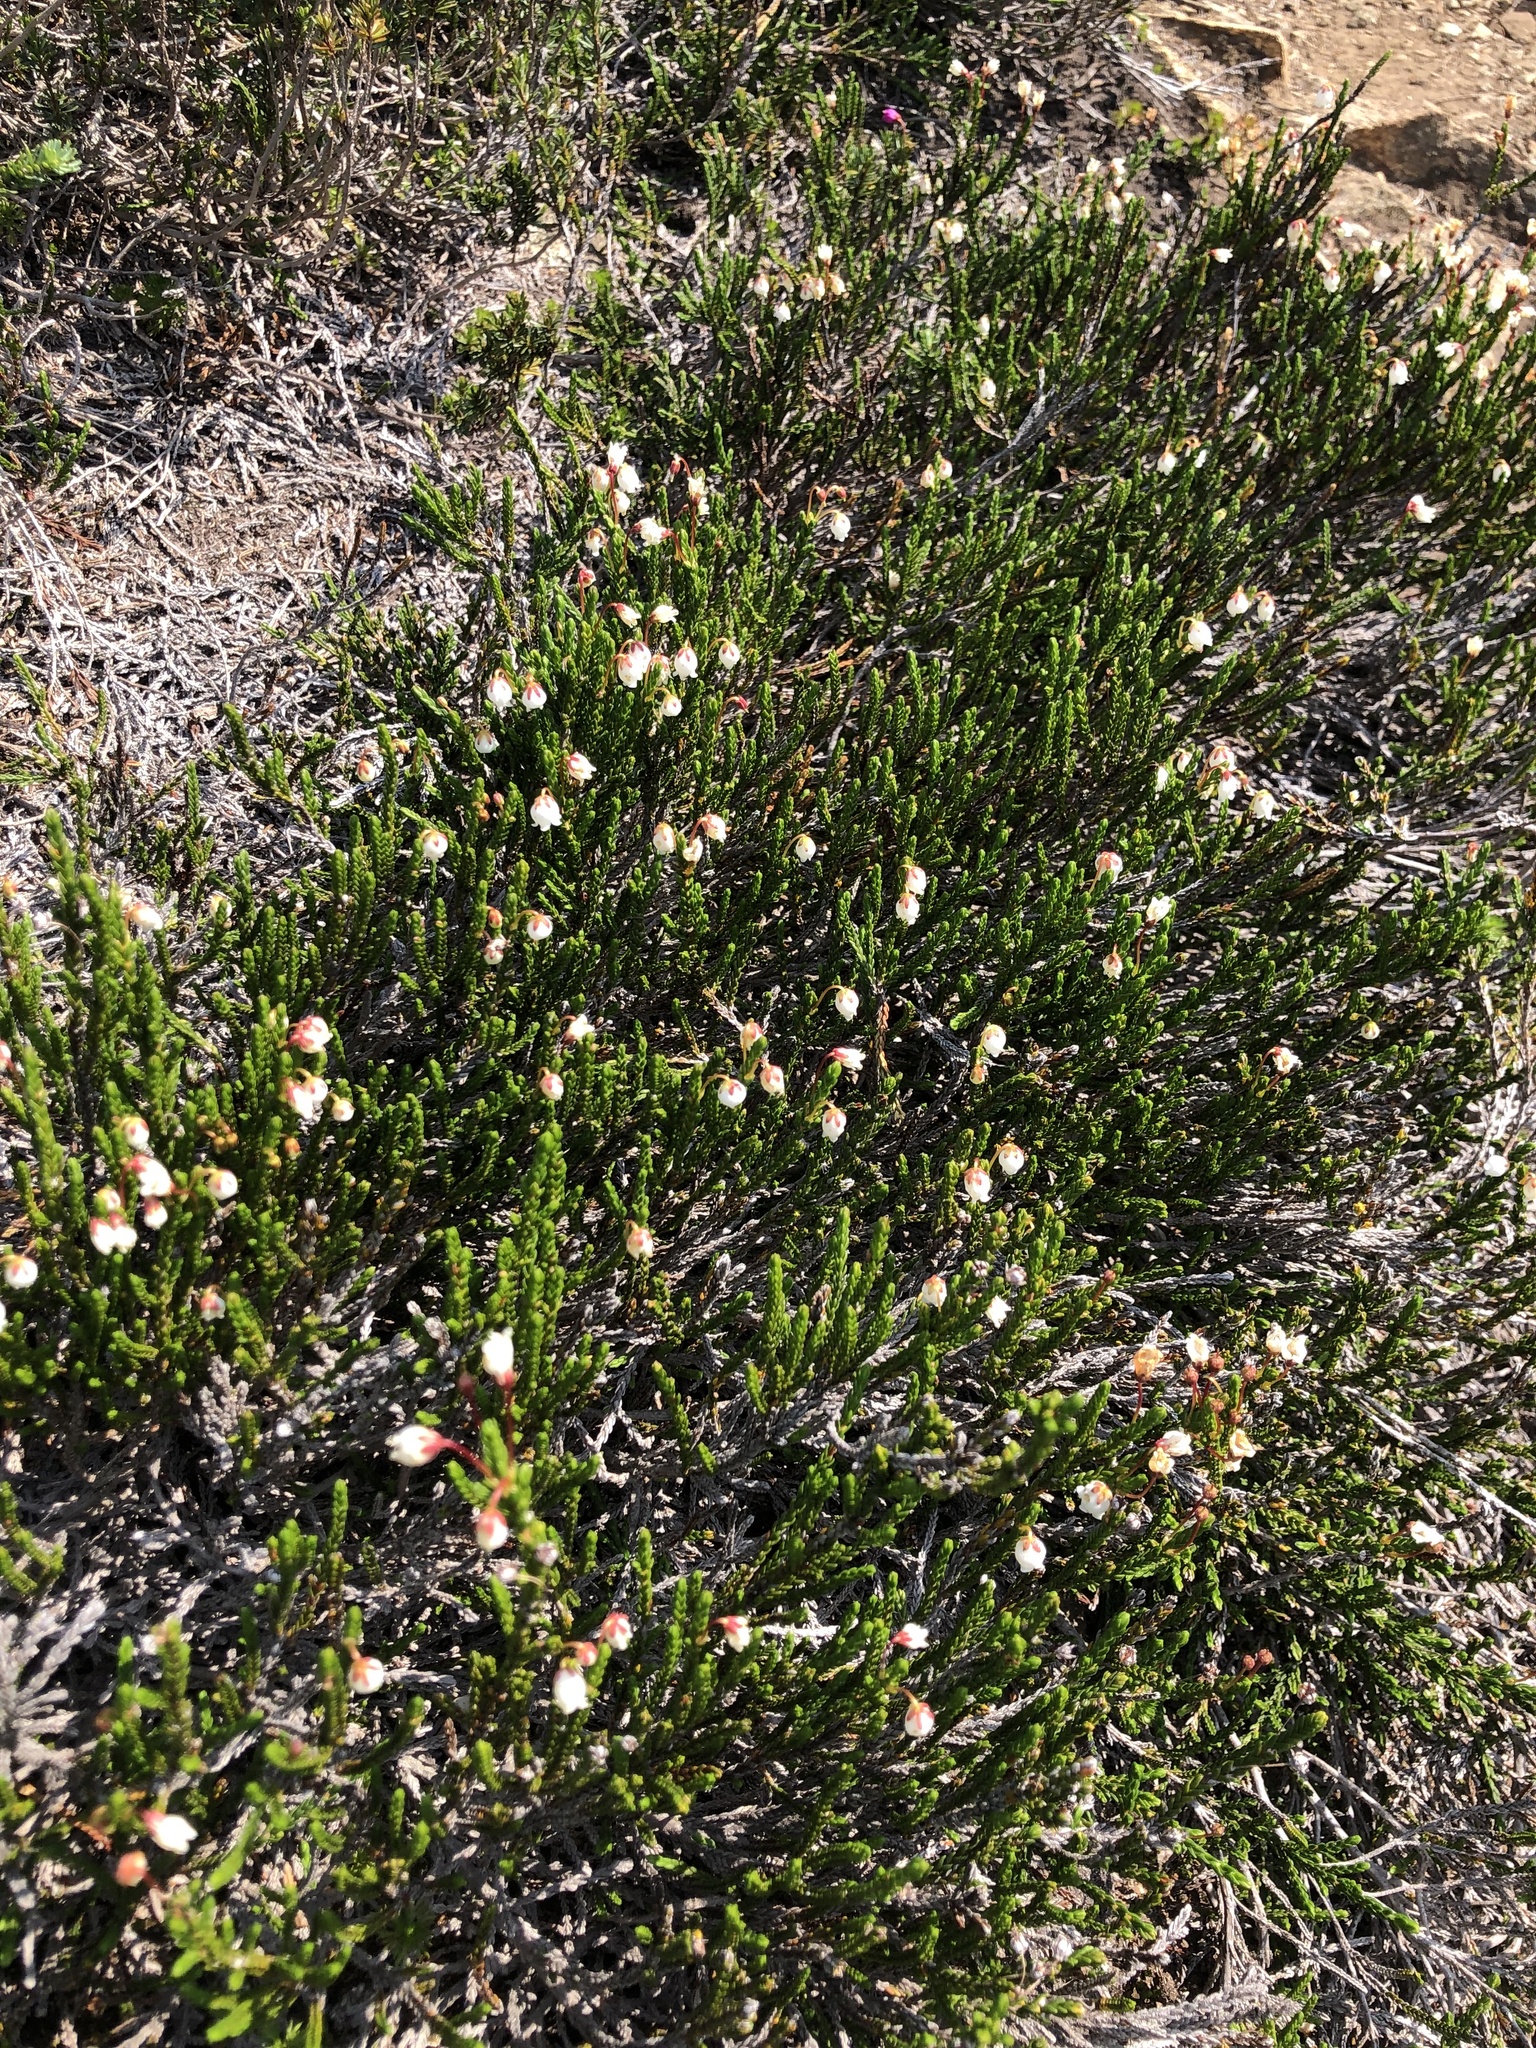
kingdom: Plantae
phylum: Tracheophyta
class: Magnoliopsida
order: Ericales
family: Ericaceae
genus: Cassiope
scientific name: Cassiope mertensiana
